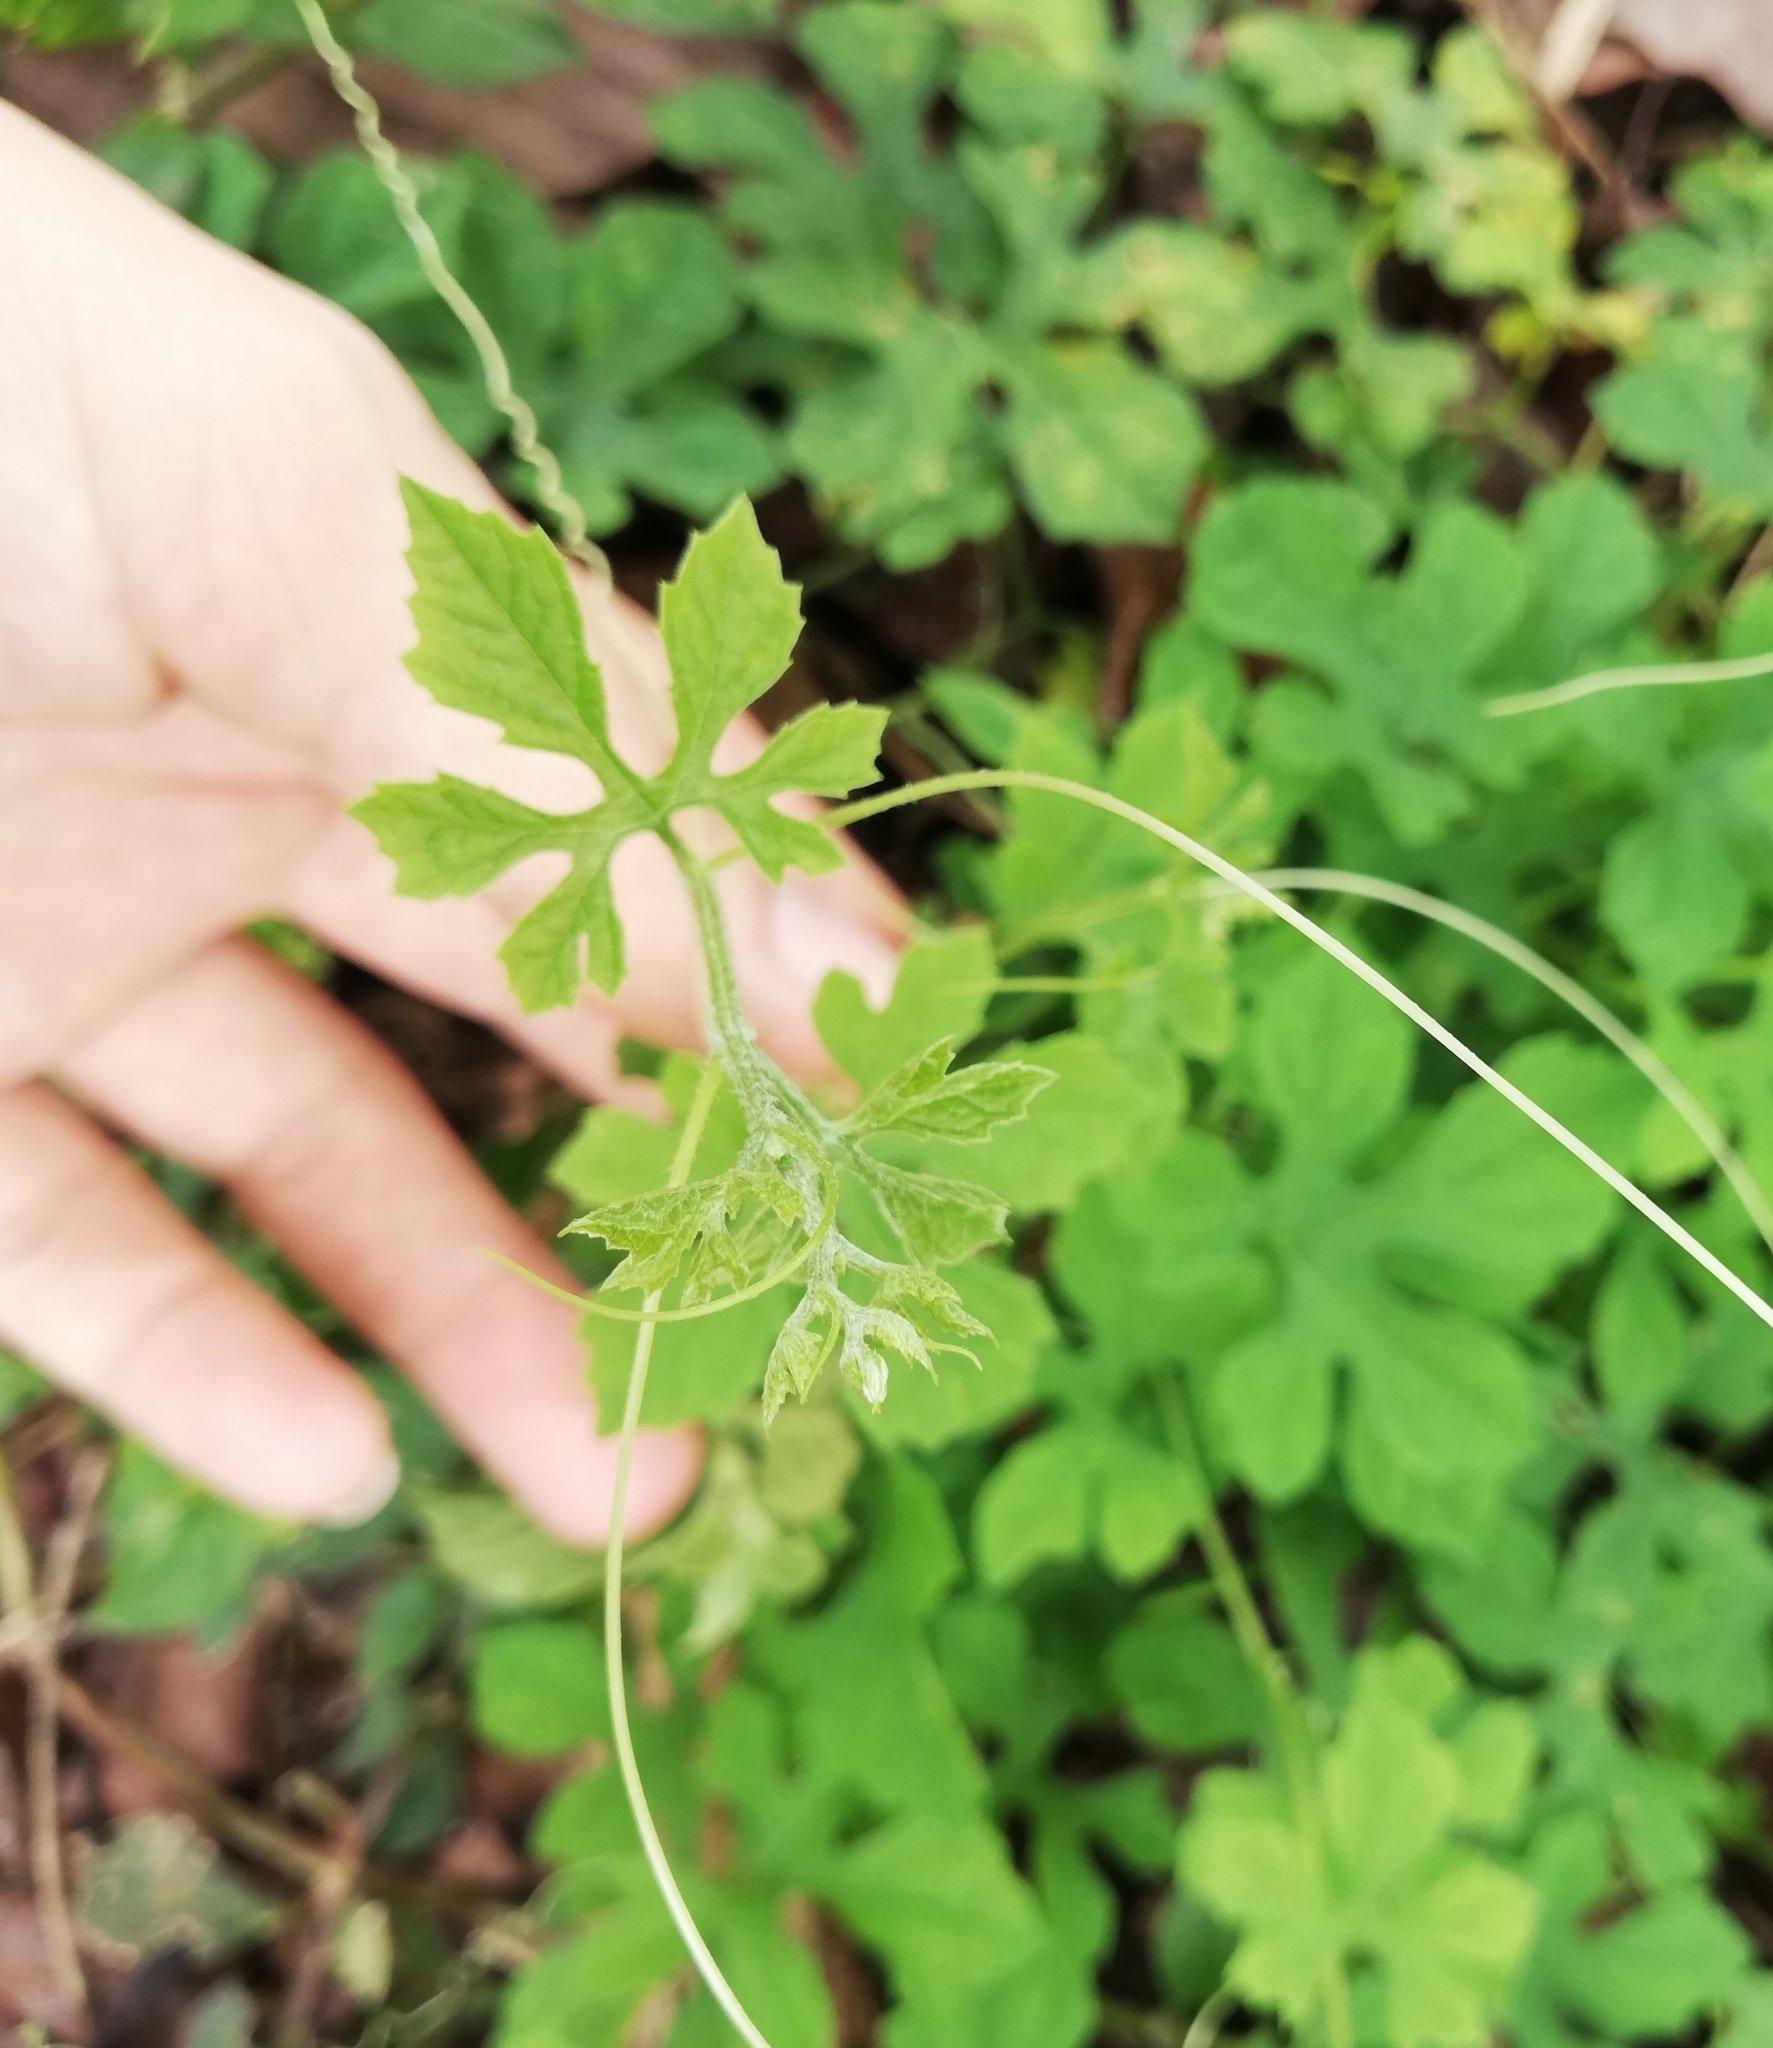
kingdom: Plantae
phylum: Tracheophyta
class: Magnoliopsida
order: Cucurbitales
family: Cucurbitaceae
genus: Momordica
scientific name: Momordica charantia
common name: Balsampear
